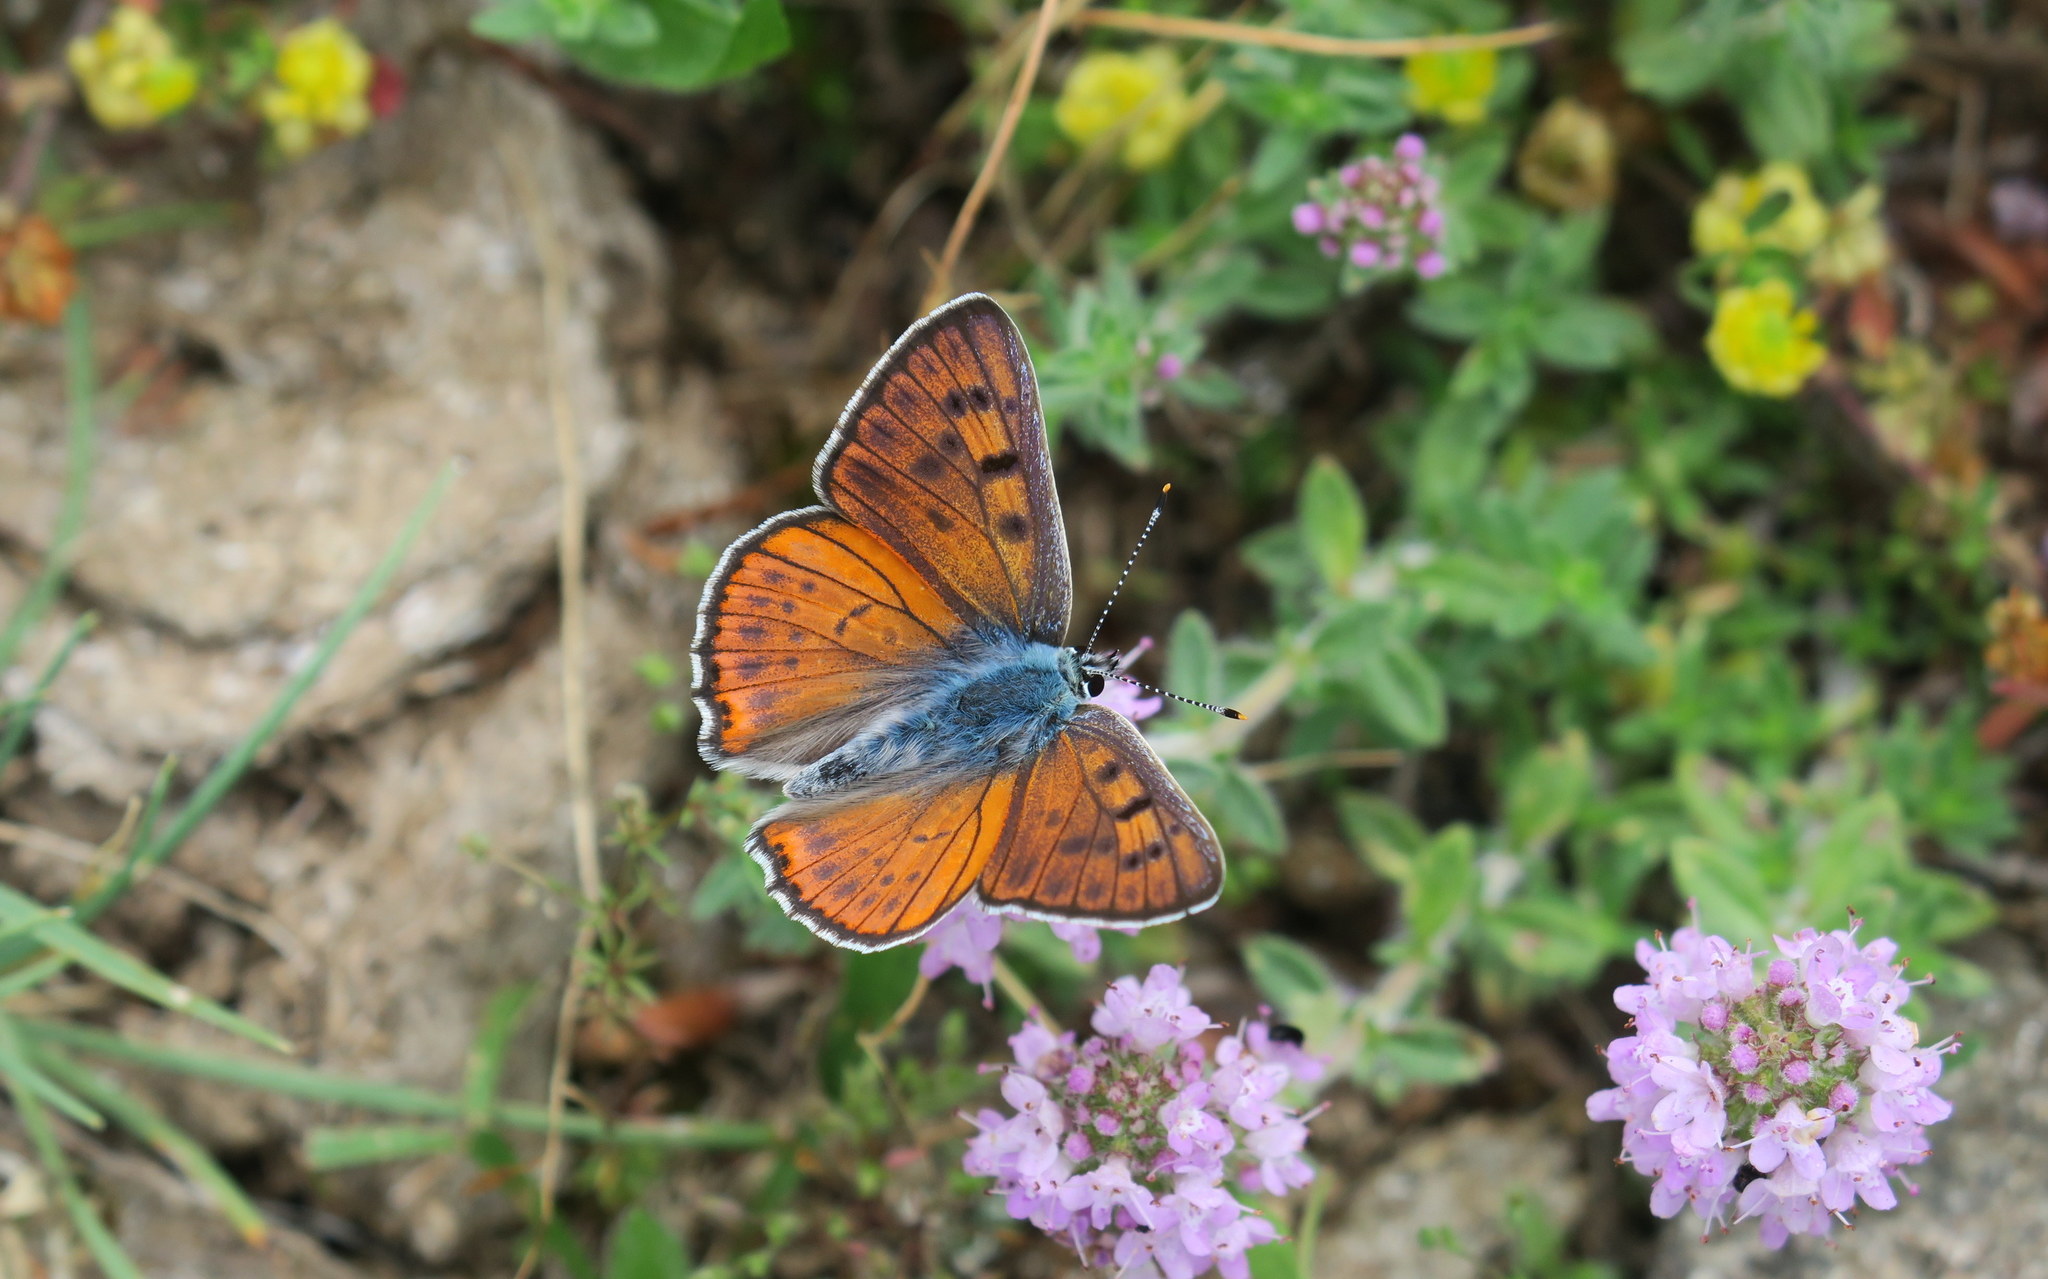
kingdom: Animalia
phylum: Arthropoda
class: Insecta
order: Lepidoptera
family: Lycaenidae
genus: Lycaena
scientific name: Lycaena alciphron
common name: Purple-shot copper
